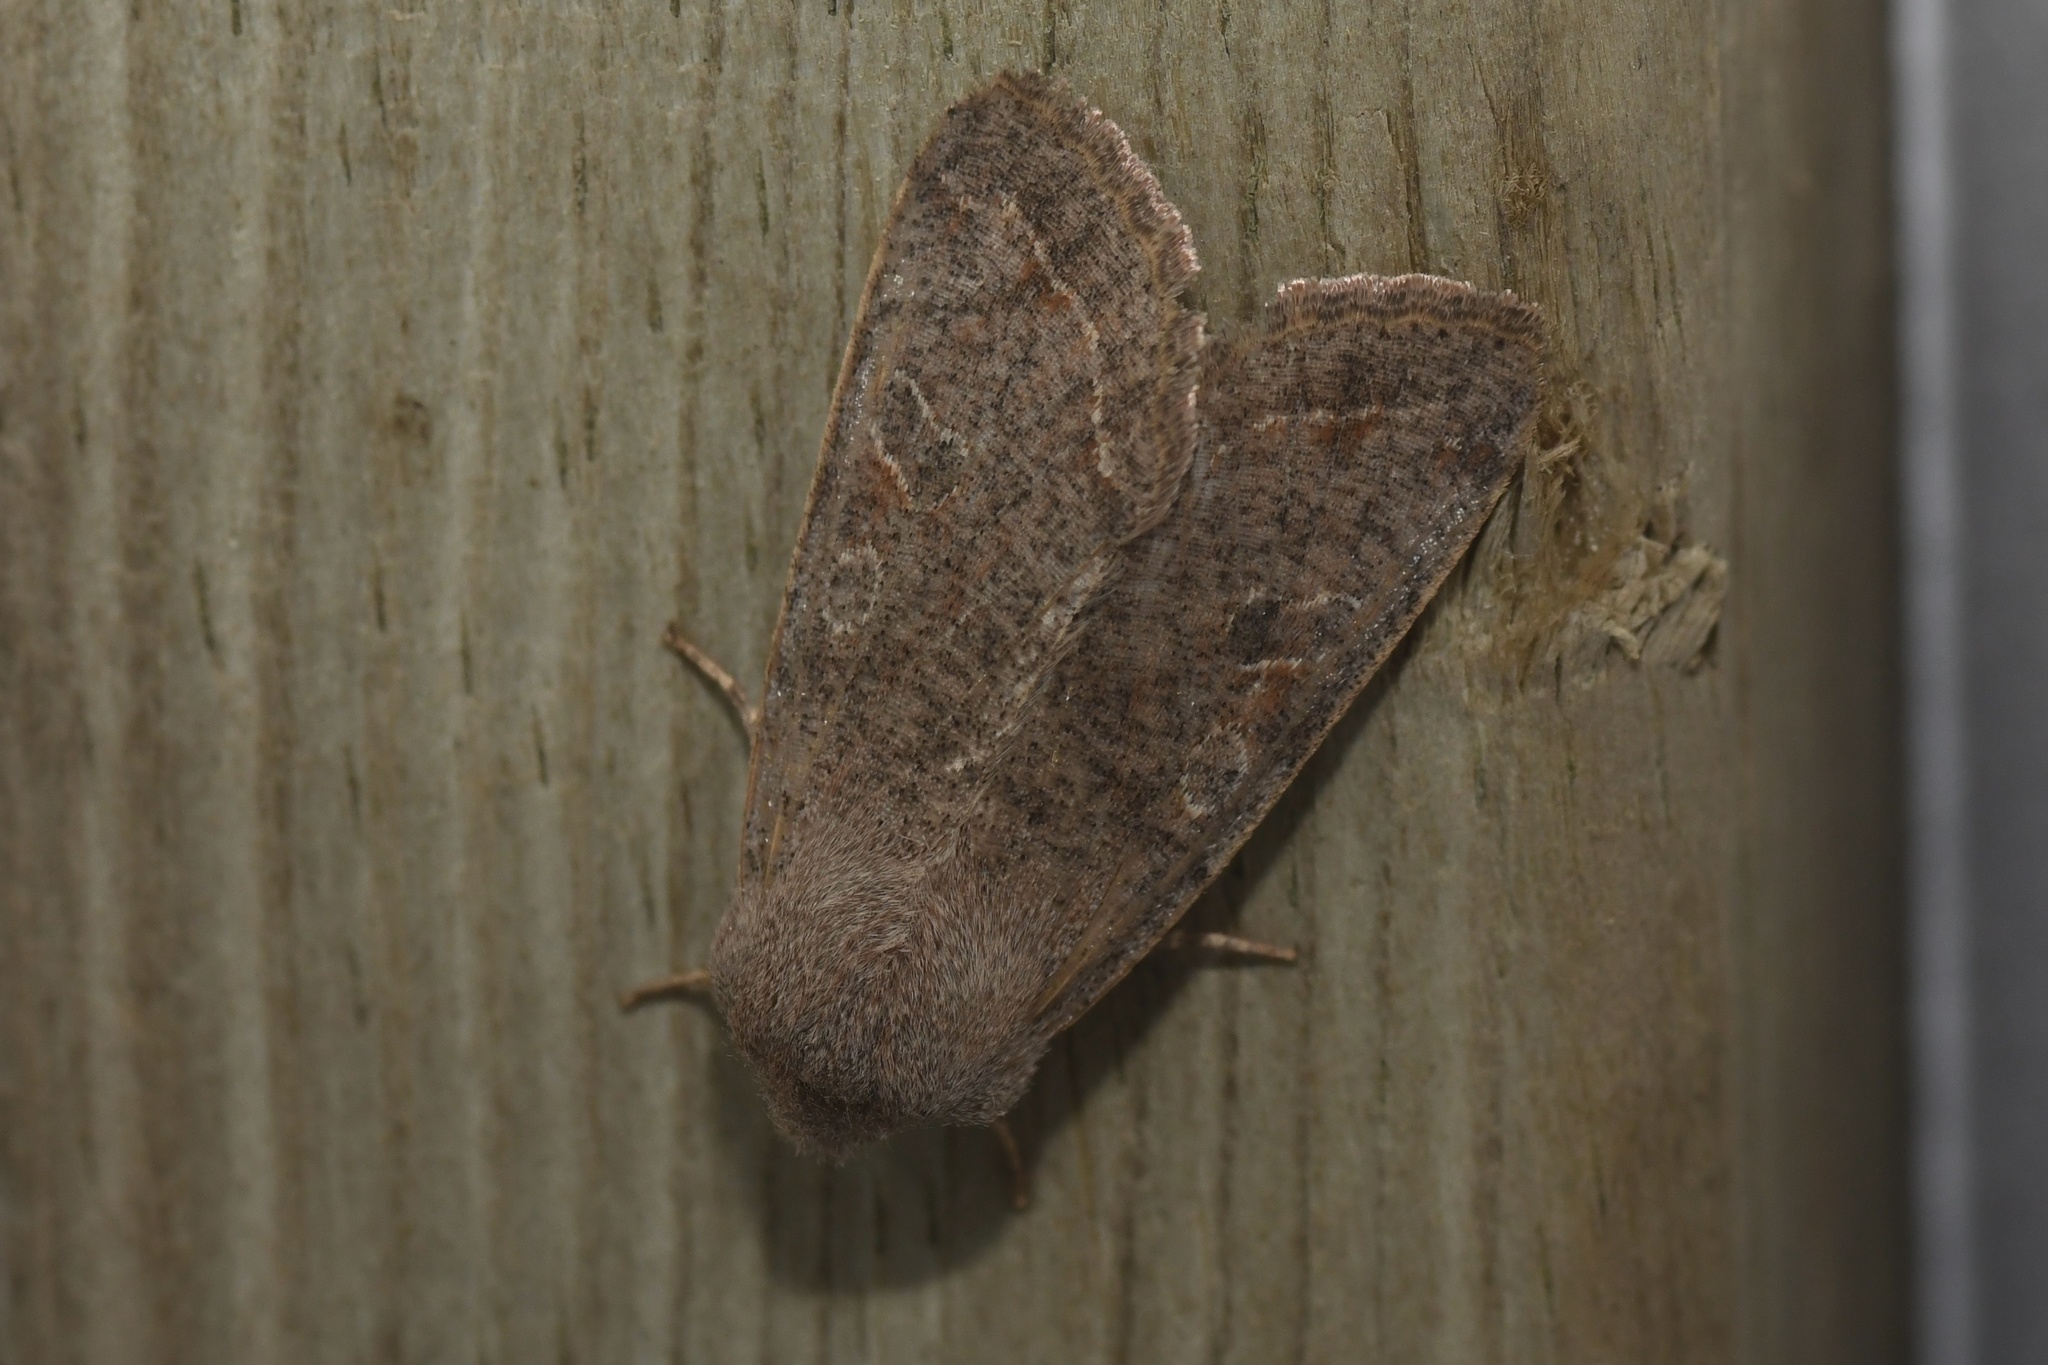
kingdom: Animalia
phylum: Arthropoda
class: Insecta
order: Lepidoptera
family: Noctuidae
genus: Orthosia
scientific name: Orthosia hibisci
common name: Green fruitworm
